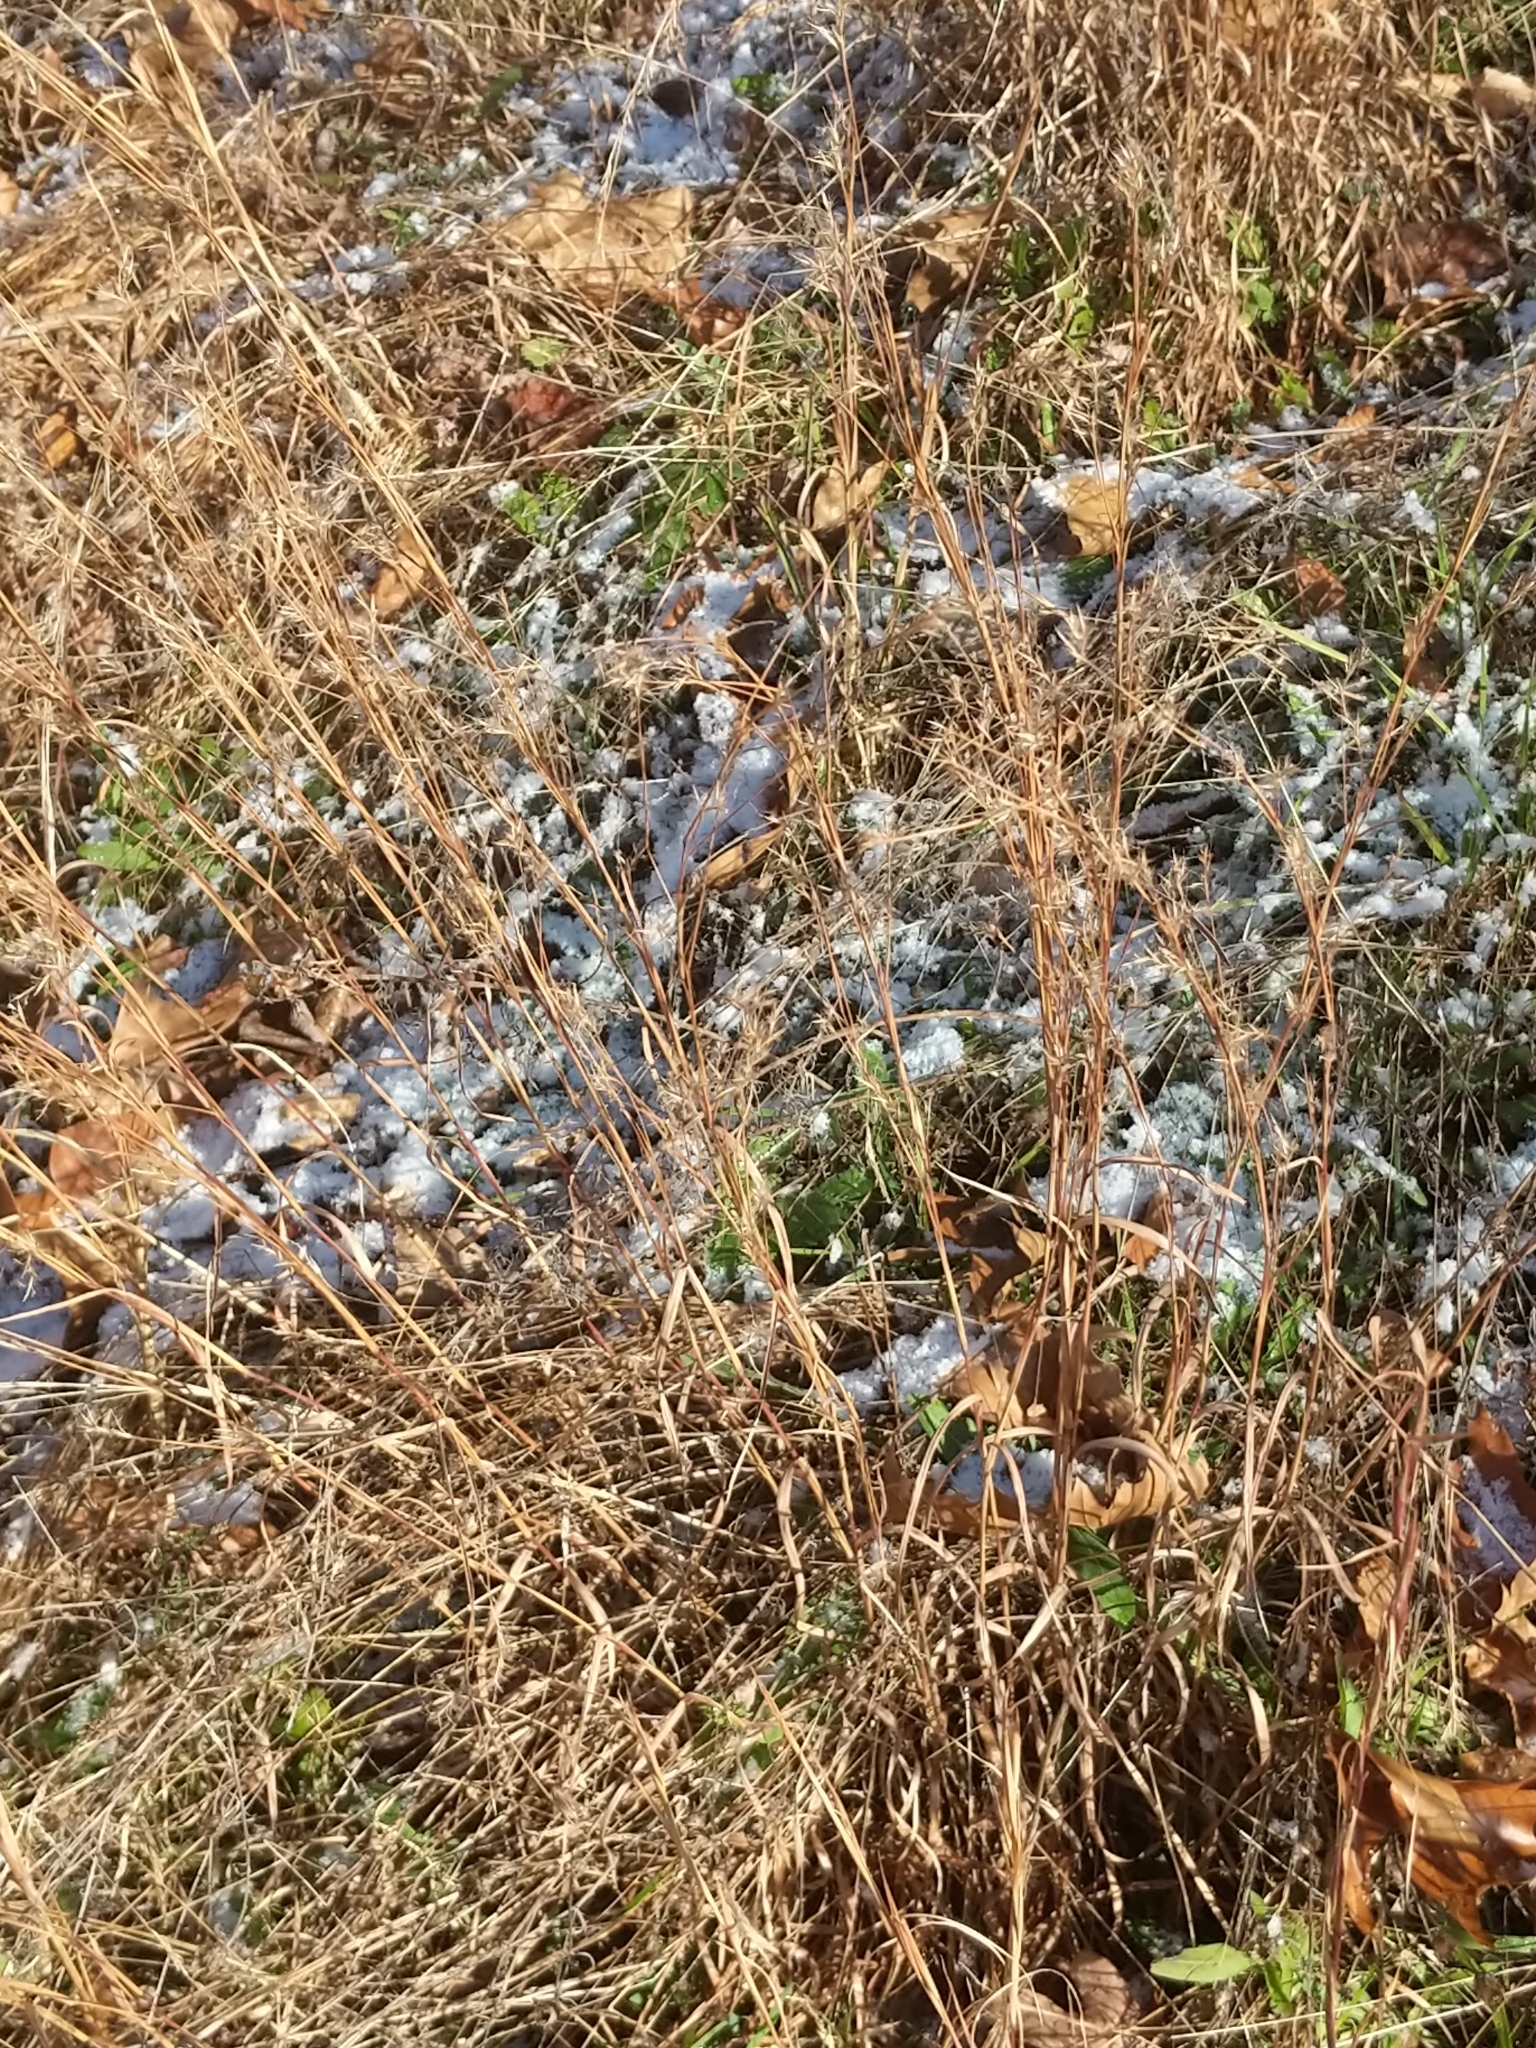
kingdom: Plantae
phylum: Tracheophyta
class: Liliopsida
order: Poales
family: Poaceae
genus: Schizachyrium
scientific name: Schizachyrium scoparium
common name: Little bluestem
